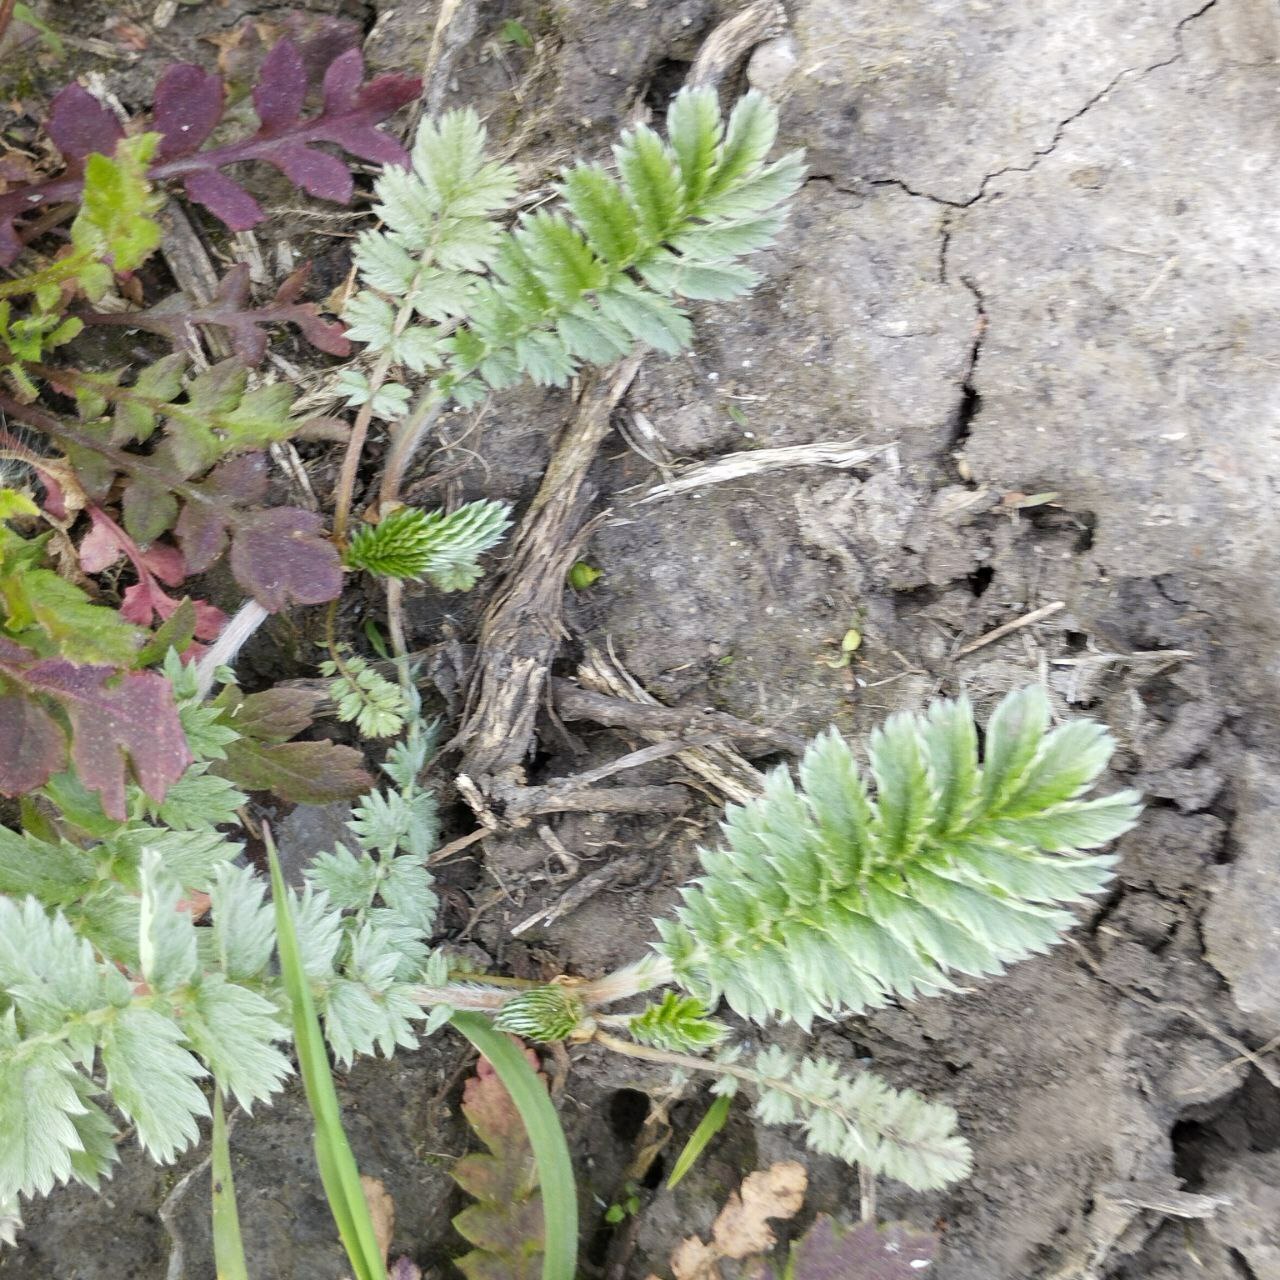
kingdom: Plantae
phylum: Tracheophyta
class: Magnoliopsida
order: Rosales
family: Rosaceae
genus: Argentina
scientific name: Argentina anserina
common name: Common silverweed
